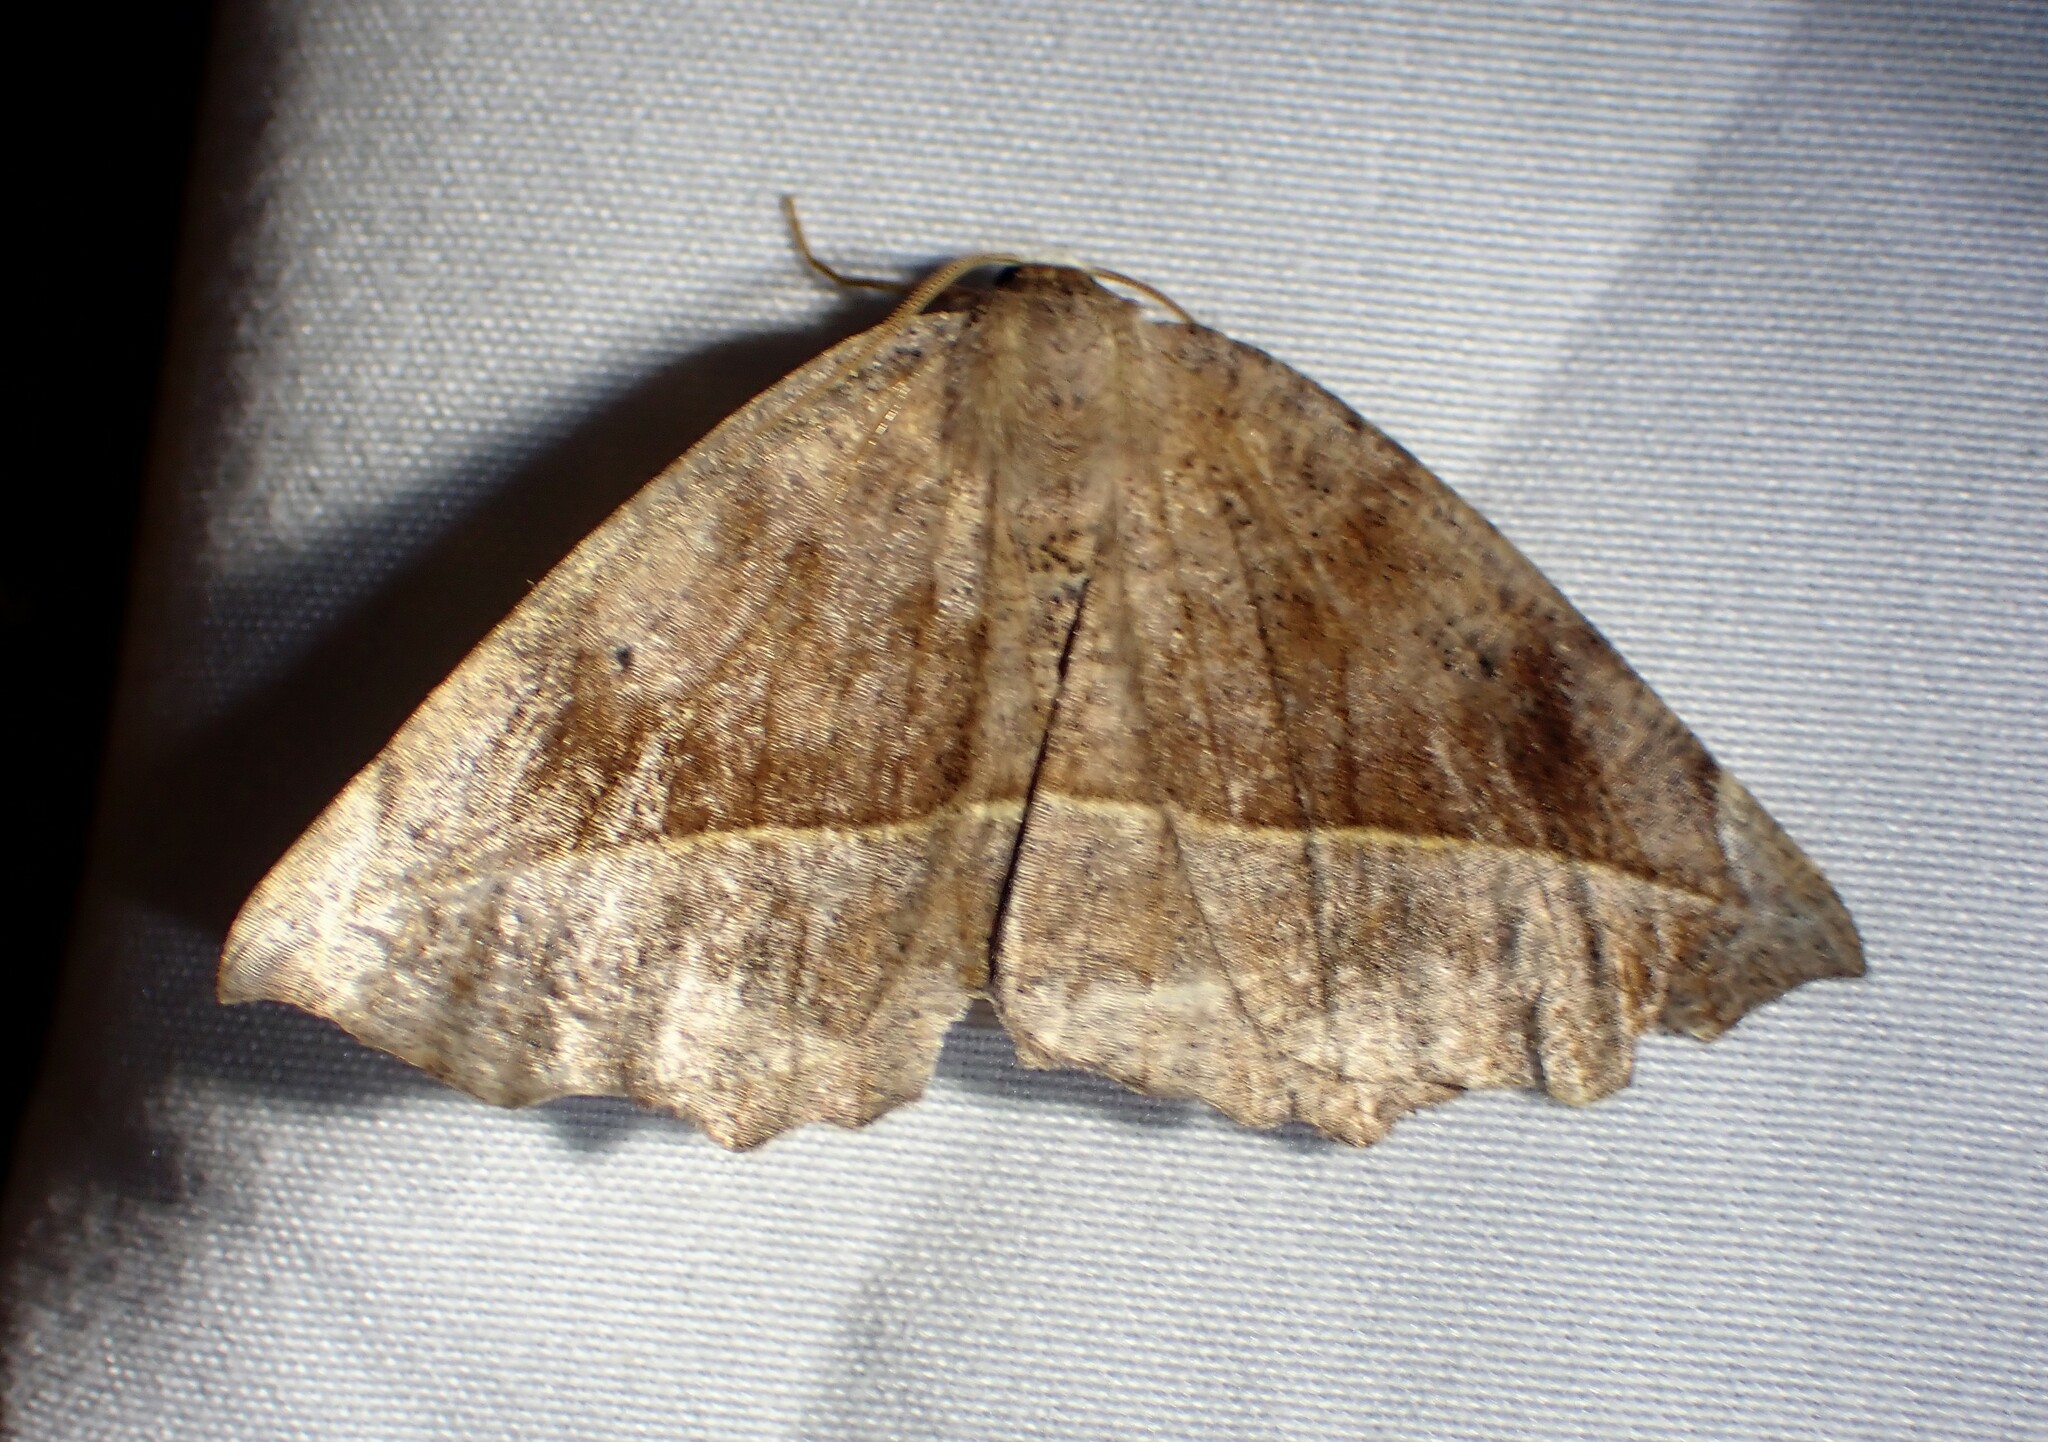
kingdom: Animalia
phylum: Arthropoda
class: Insecta
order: Lepidoptera
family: Geometridae
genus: Eutrapela
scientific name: Eutrapela clemataria
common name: Curved-toothed geometer
